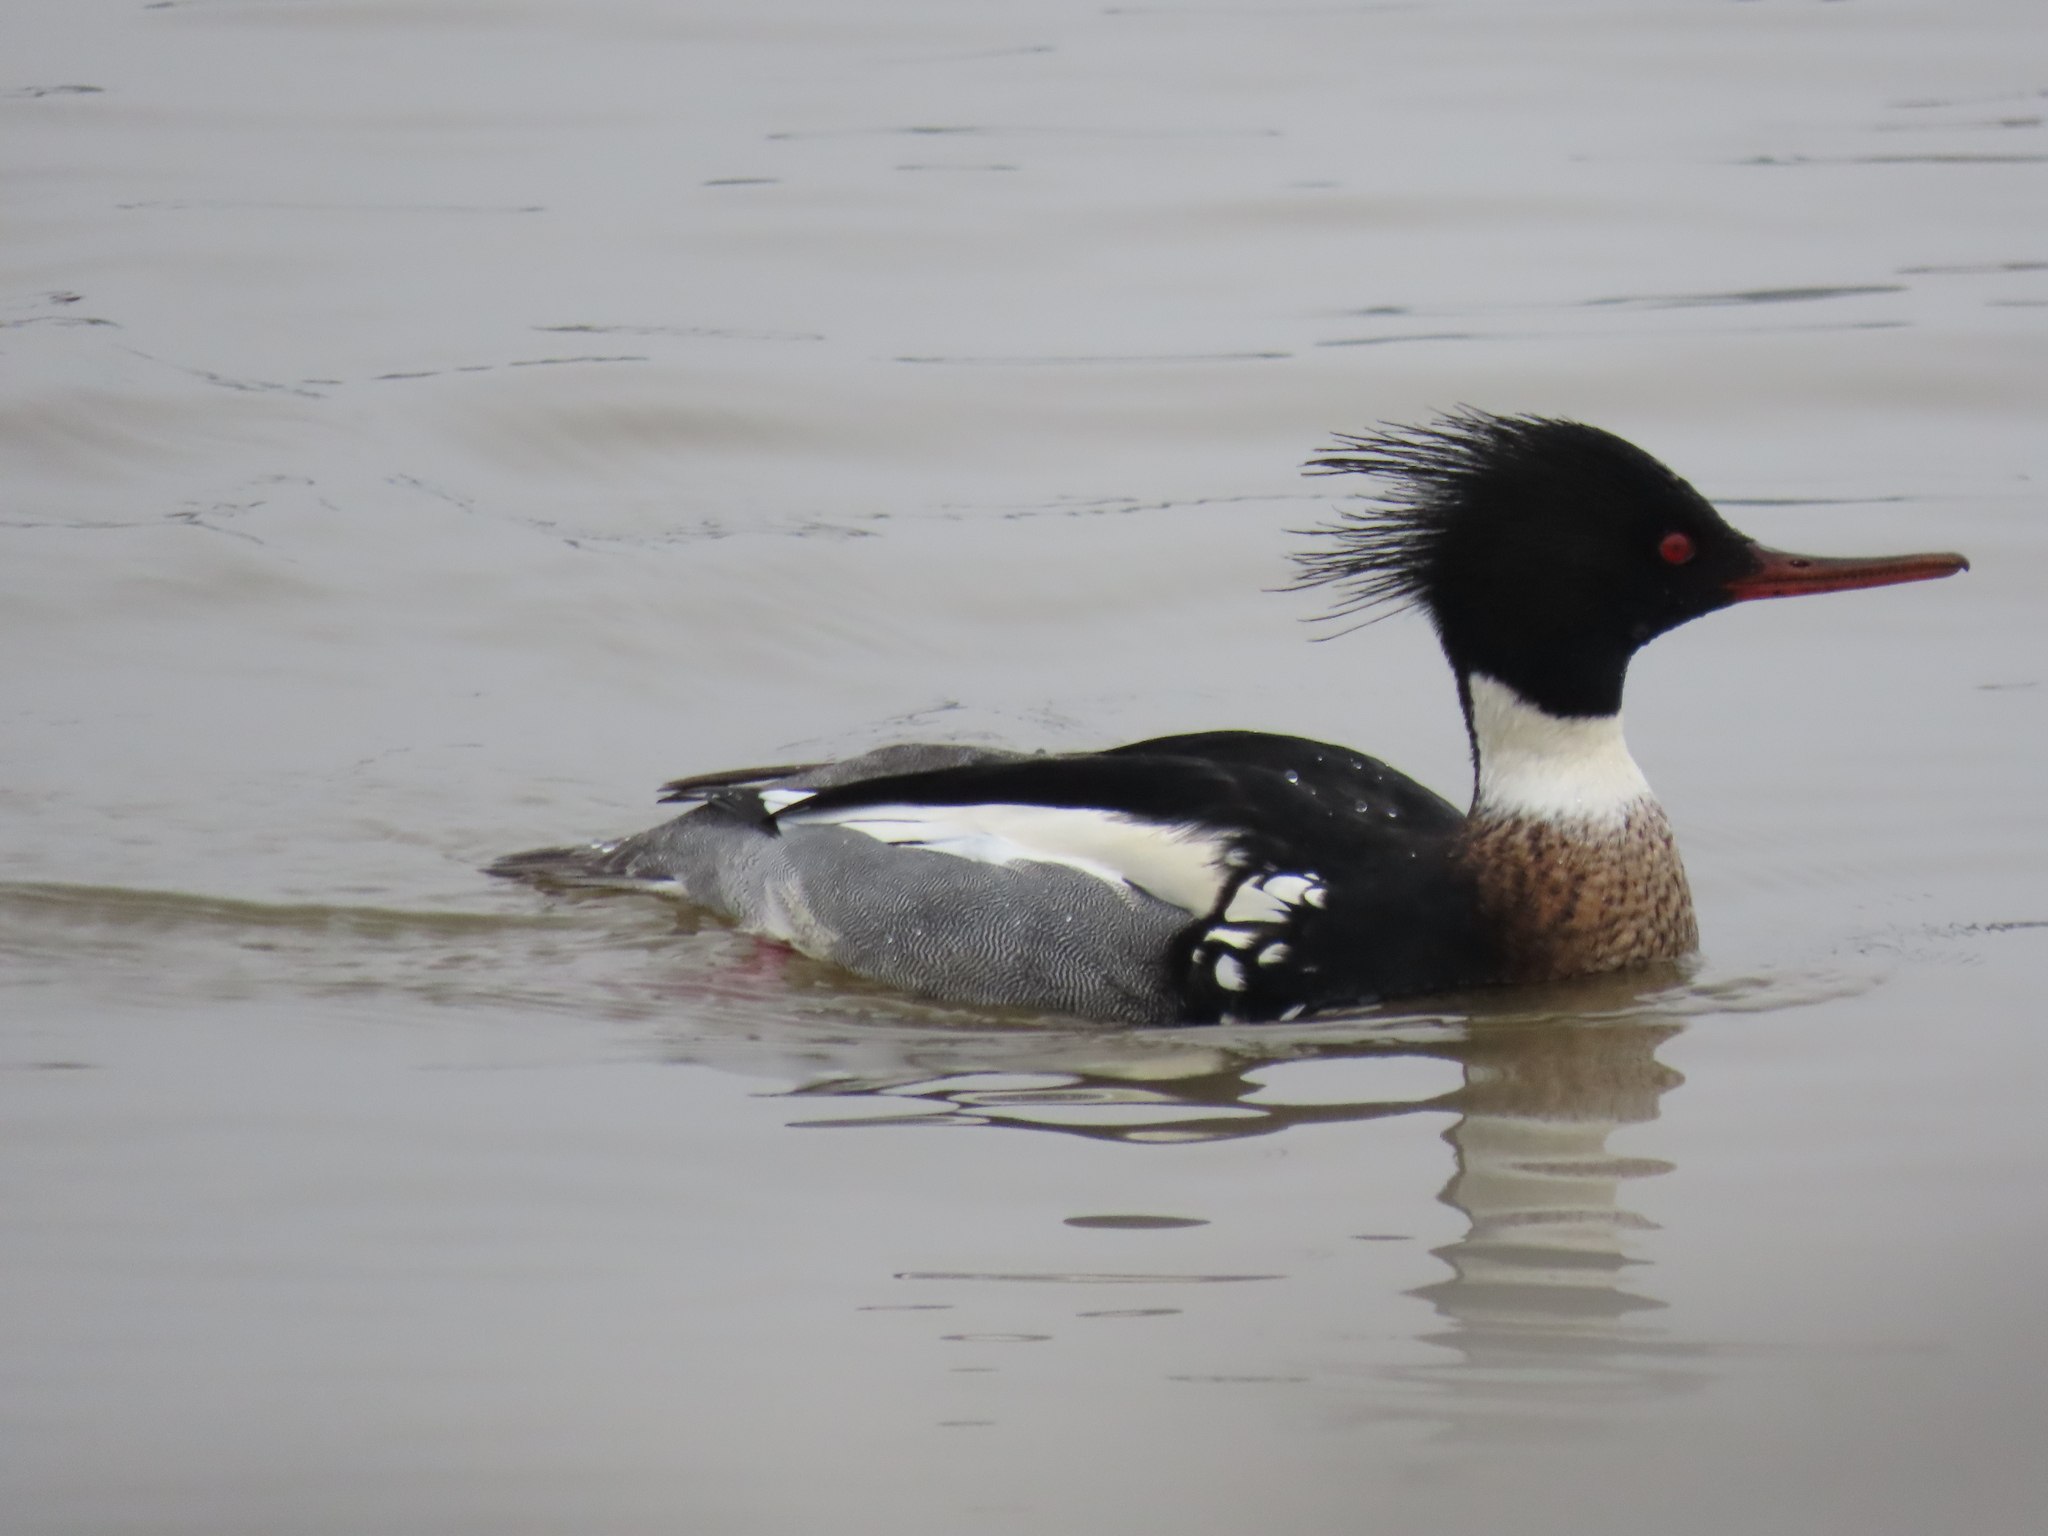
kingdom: Animalia
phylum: Chordata
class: Aves
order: Anseriformes
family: Anatidae
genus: Mergus
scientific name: Mergus serrator
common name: Red-breasted merganser
